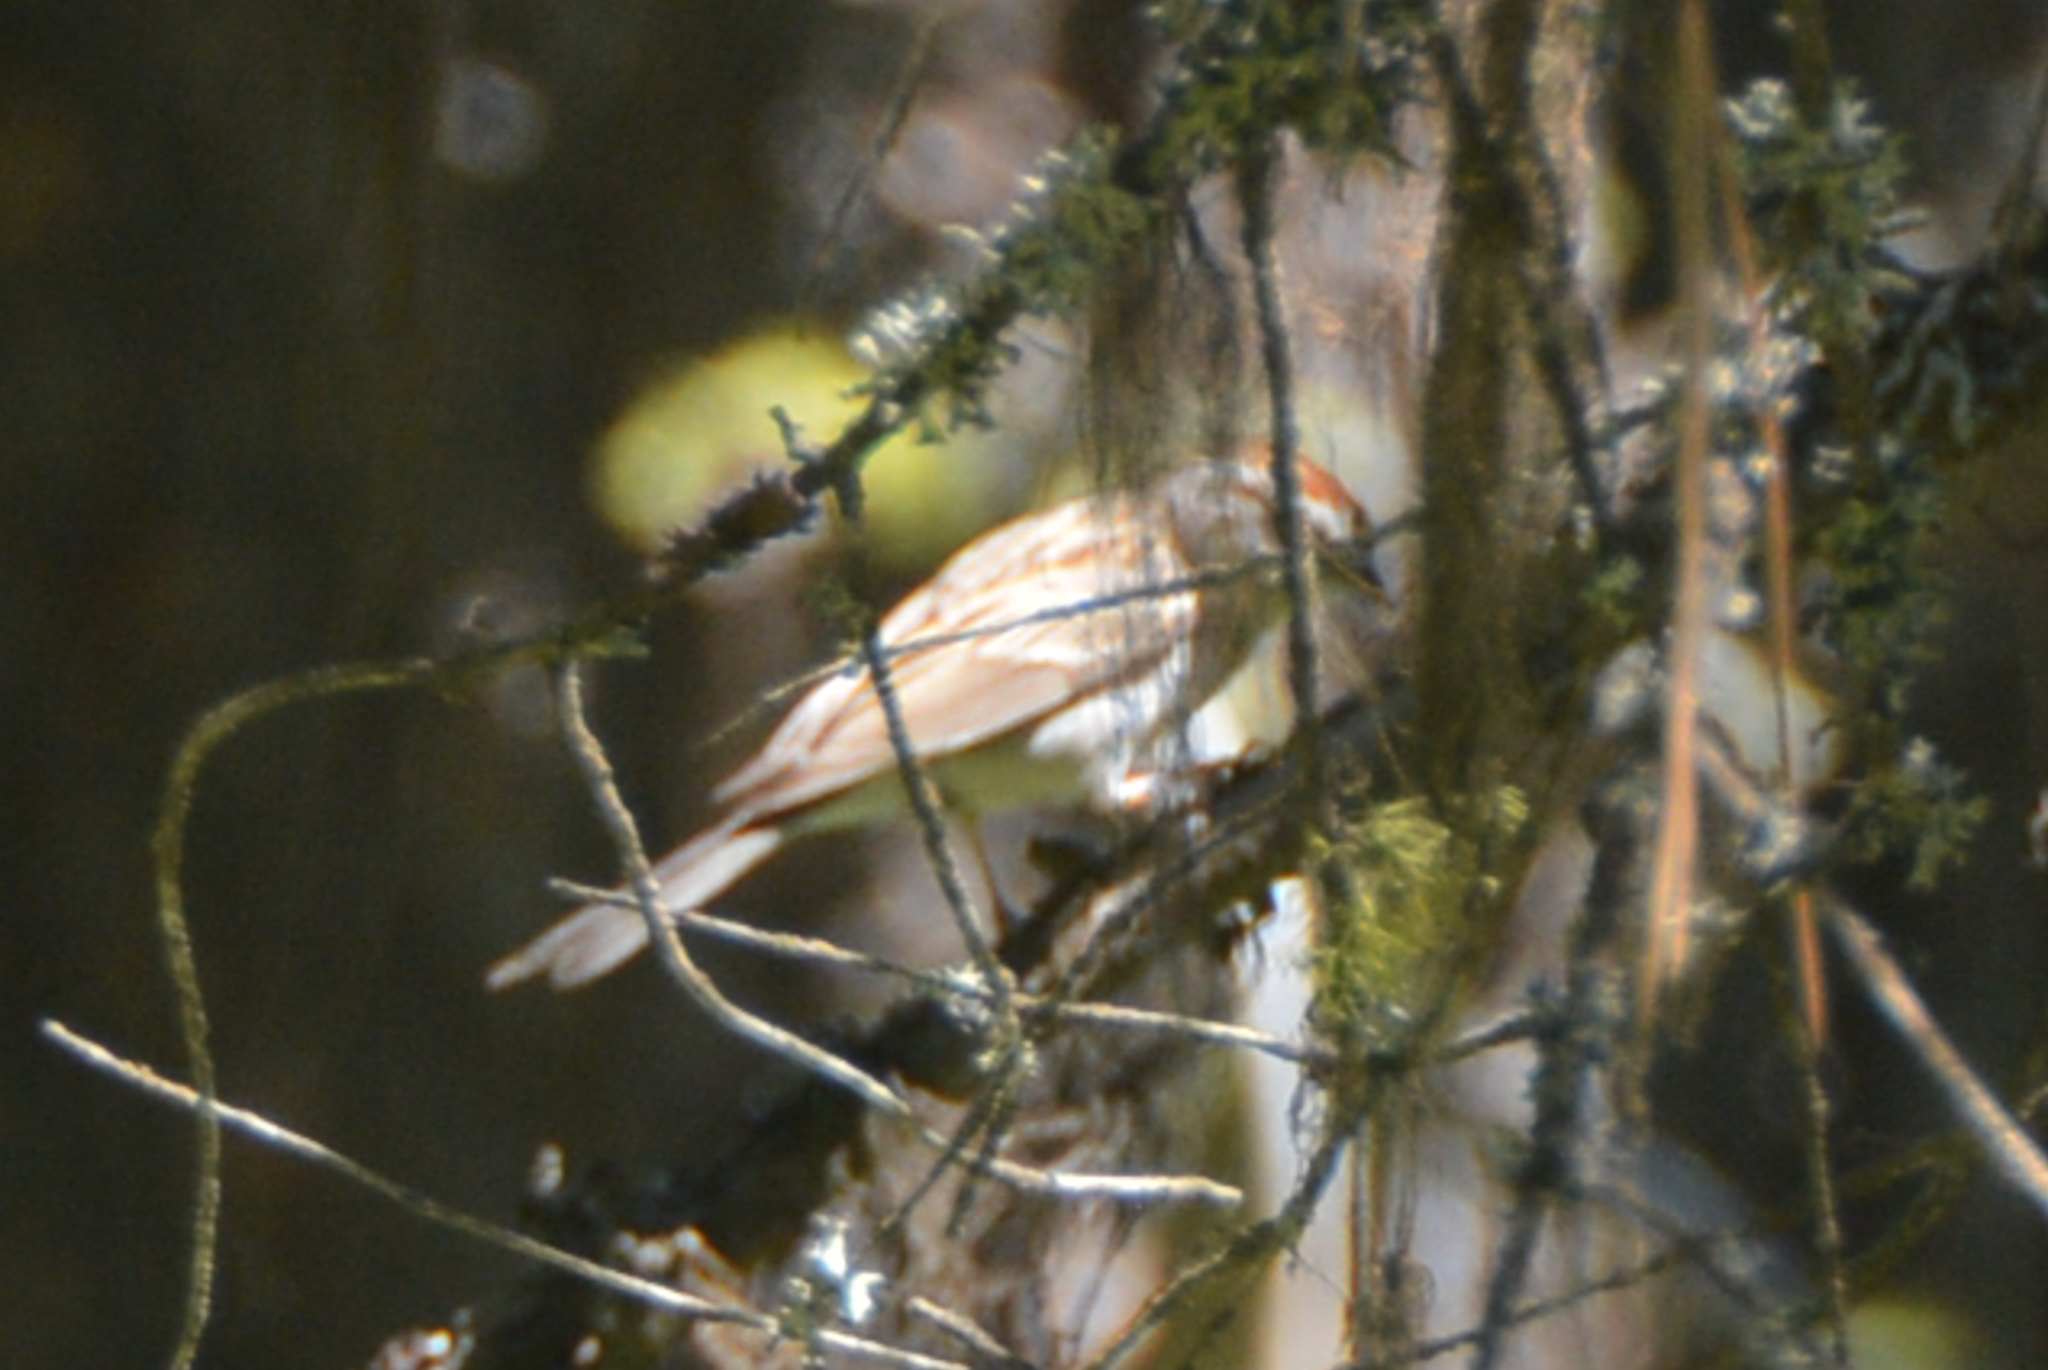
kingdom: Animalia
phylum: Chordata
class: Aves
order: Passeriformes
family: Passerellidae
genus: Spizella
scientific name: Spizella passerina
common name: Chipping sparrow
